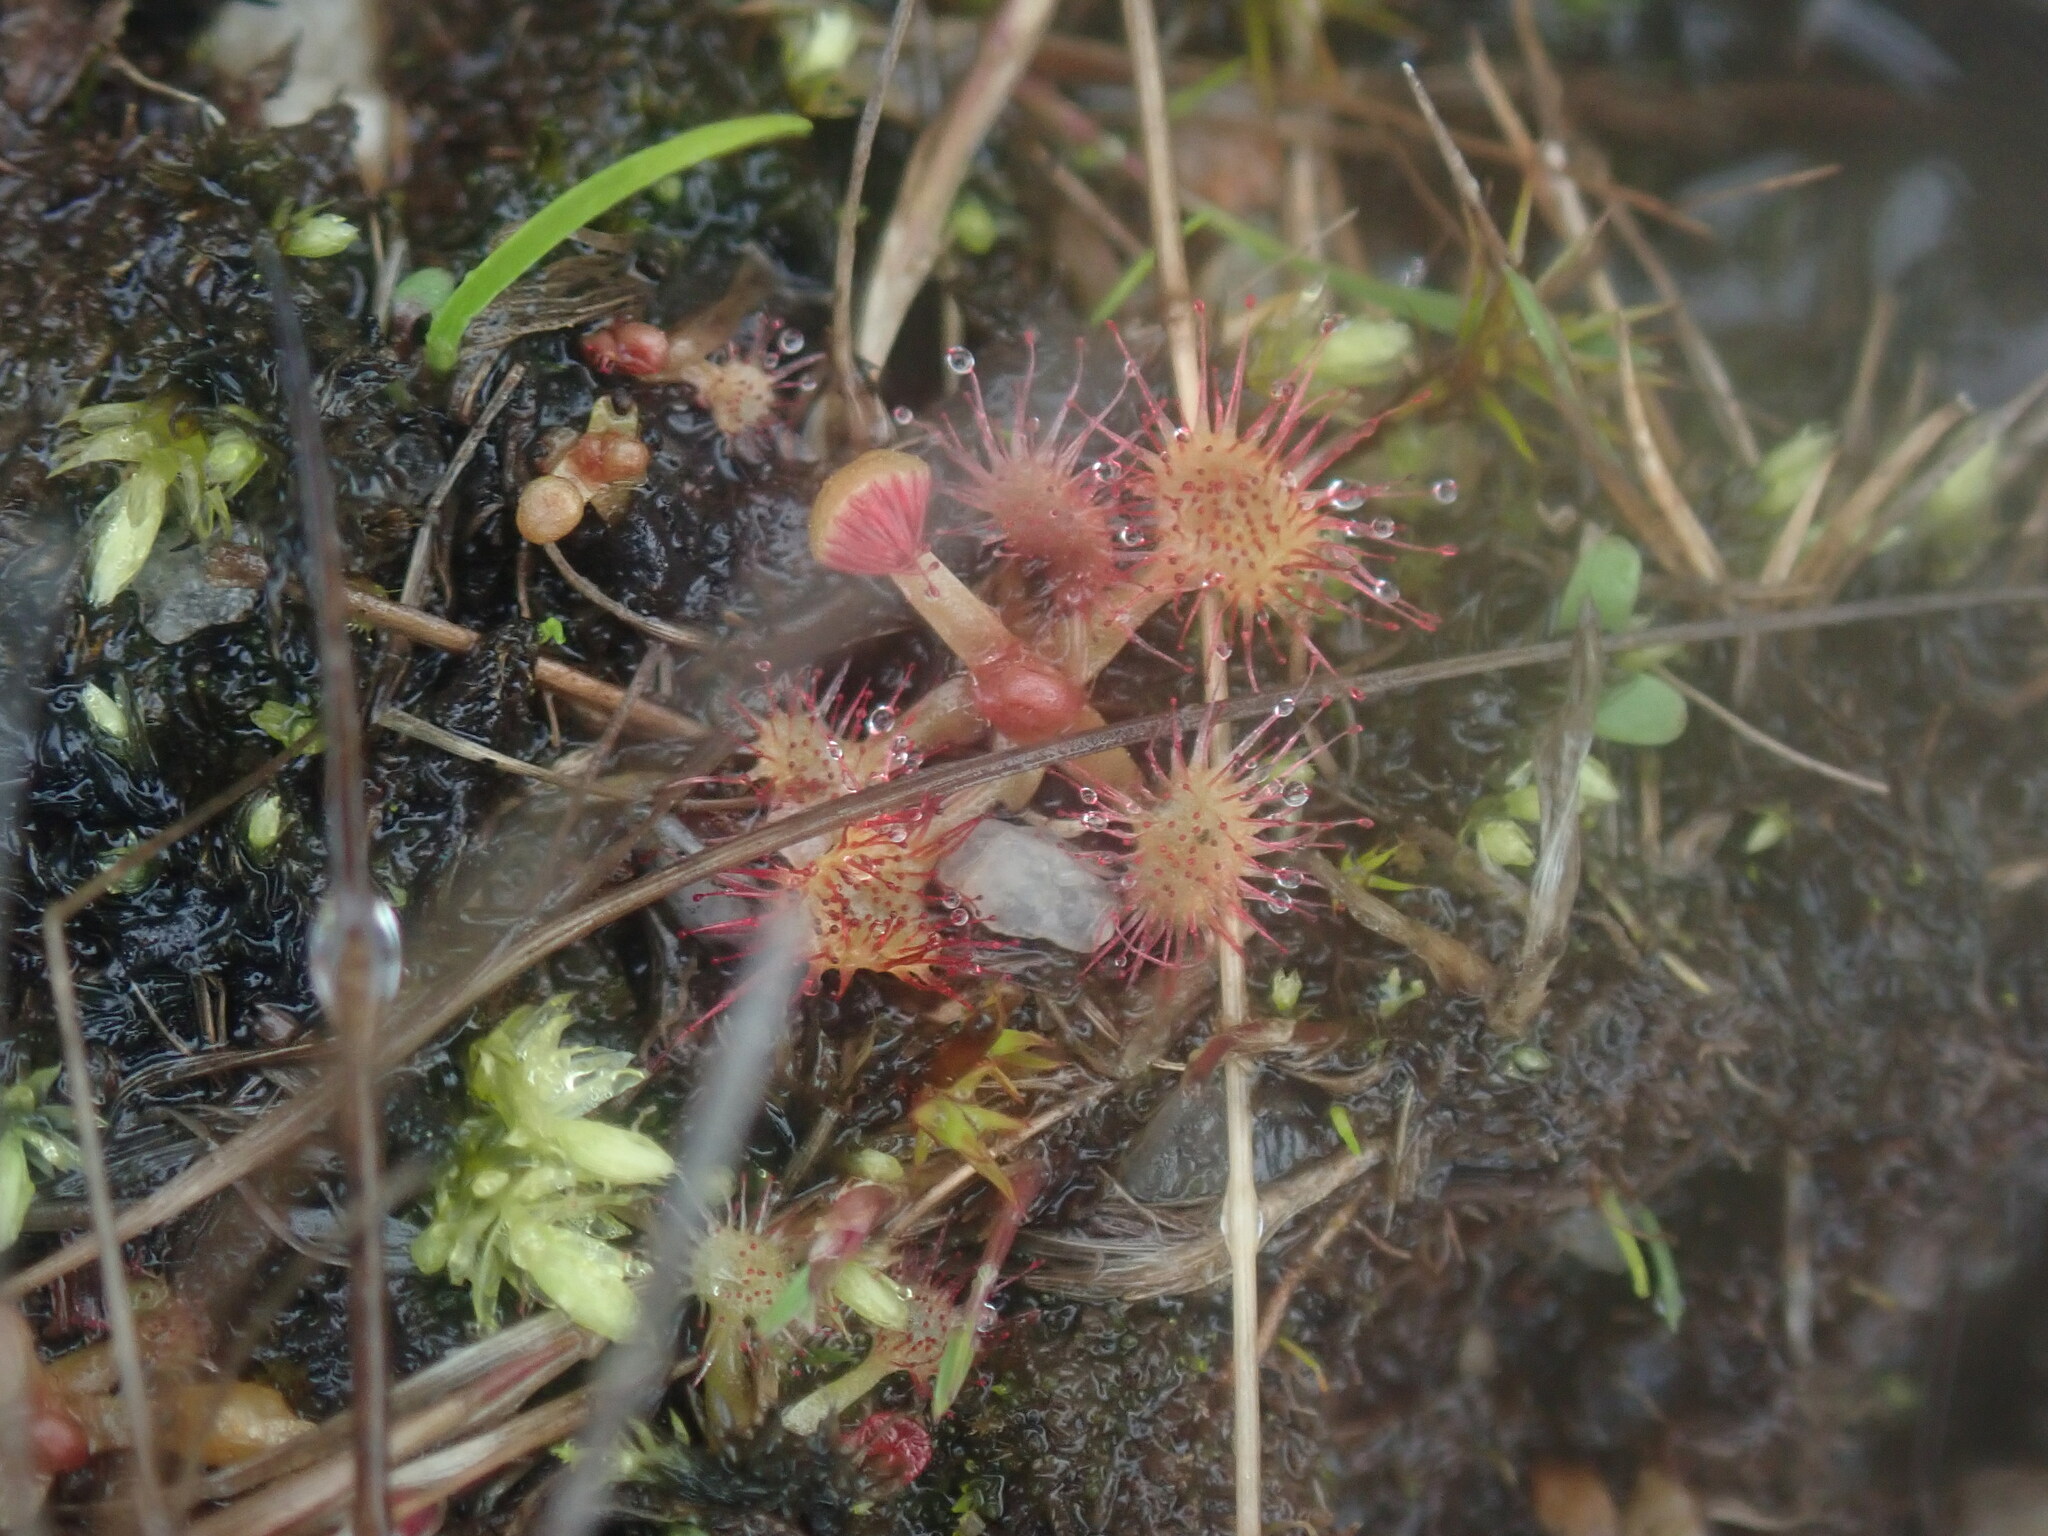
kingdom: Plantae
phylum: Tracheophyta
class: Magnoliopsida
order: Caryophyllales
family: Droseraceae
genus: Drosera
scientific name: Drosera rotundifolia
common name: Round-leaved sundew
